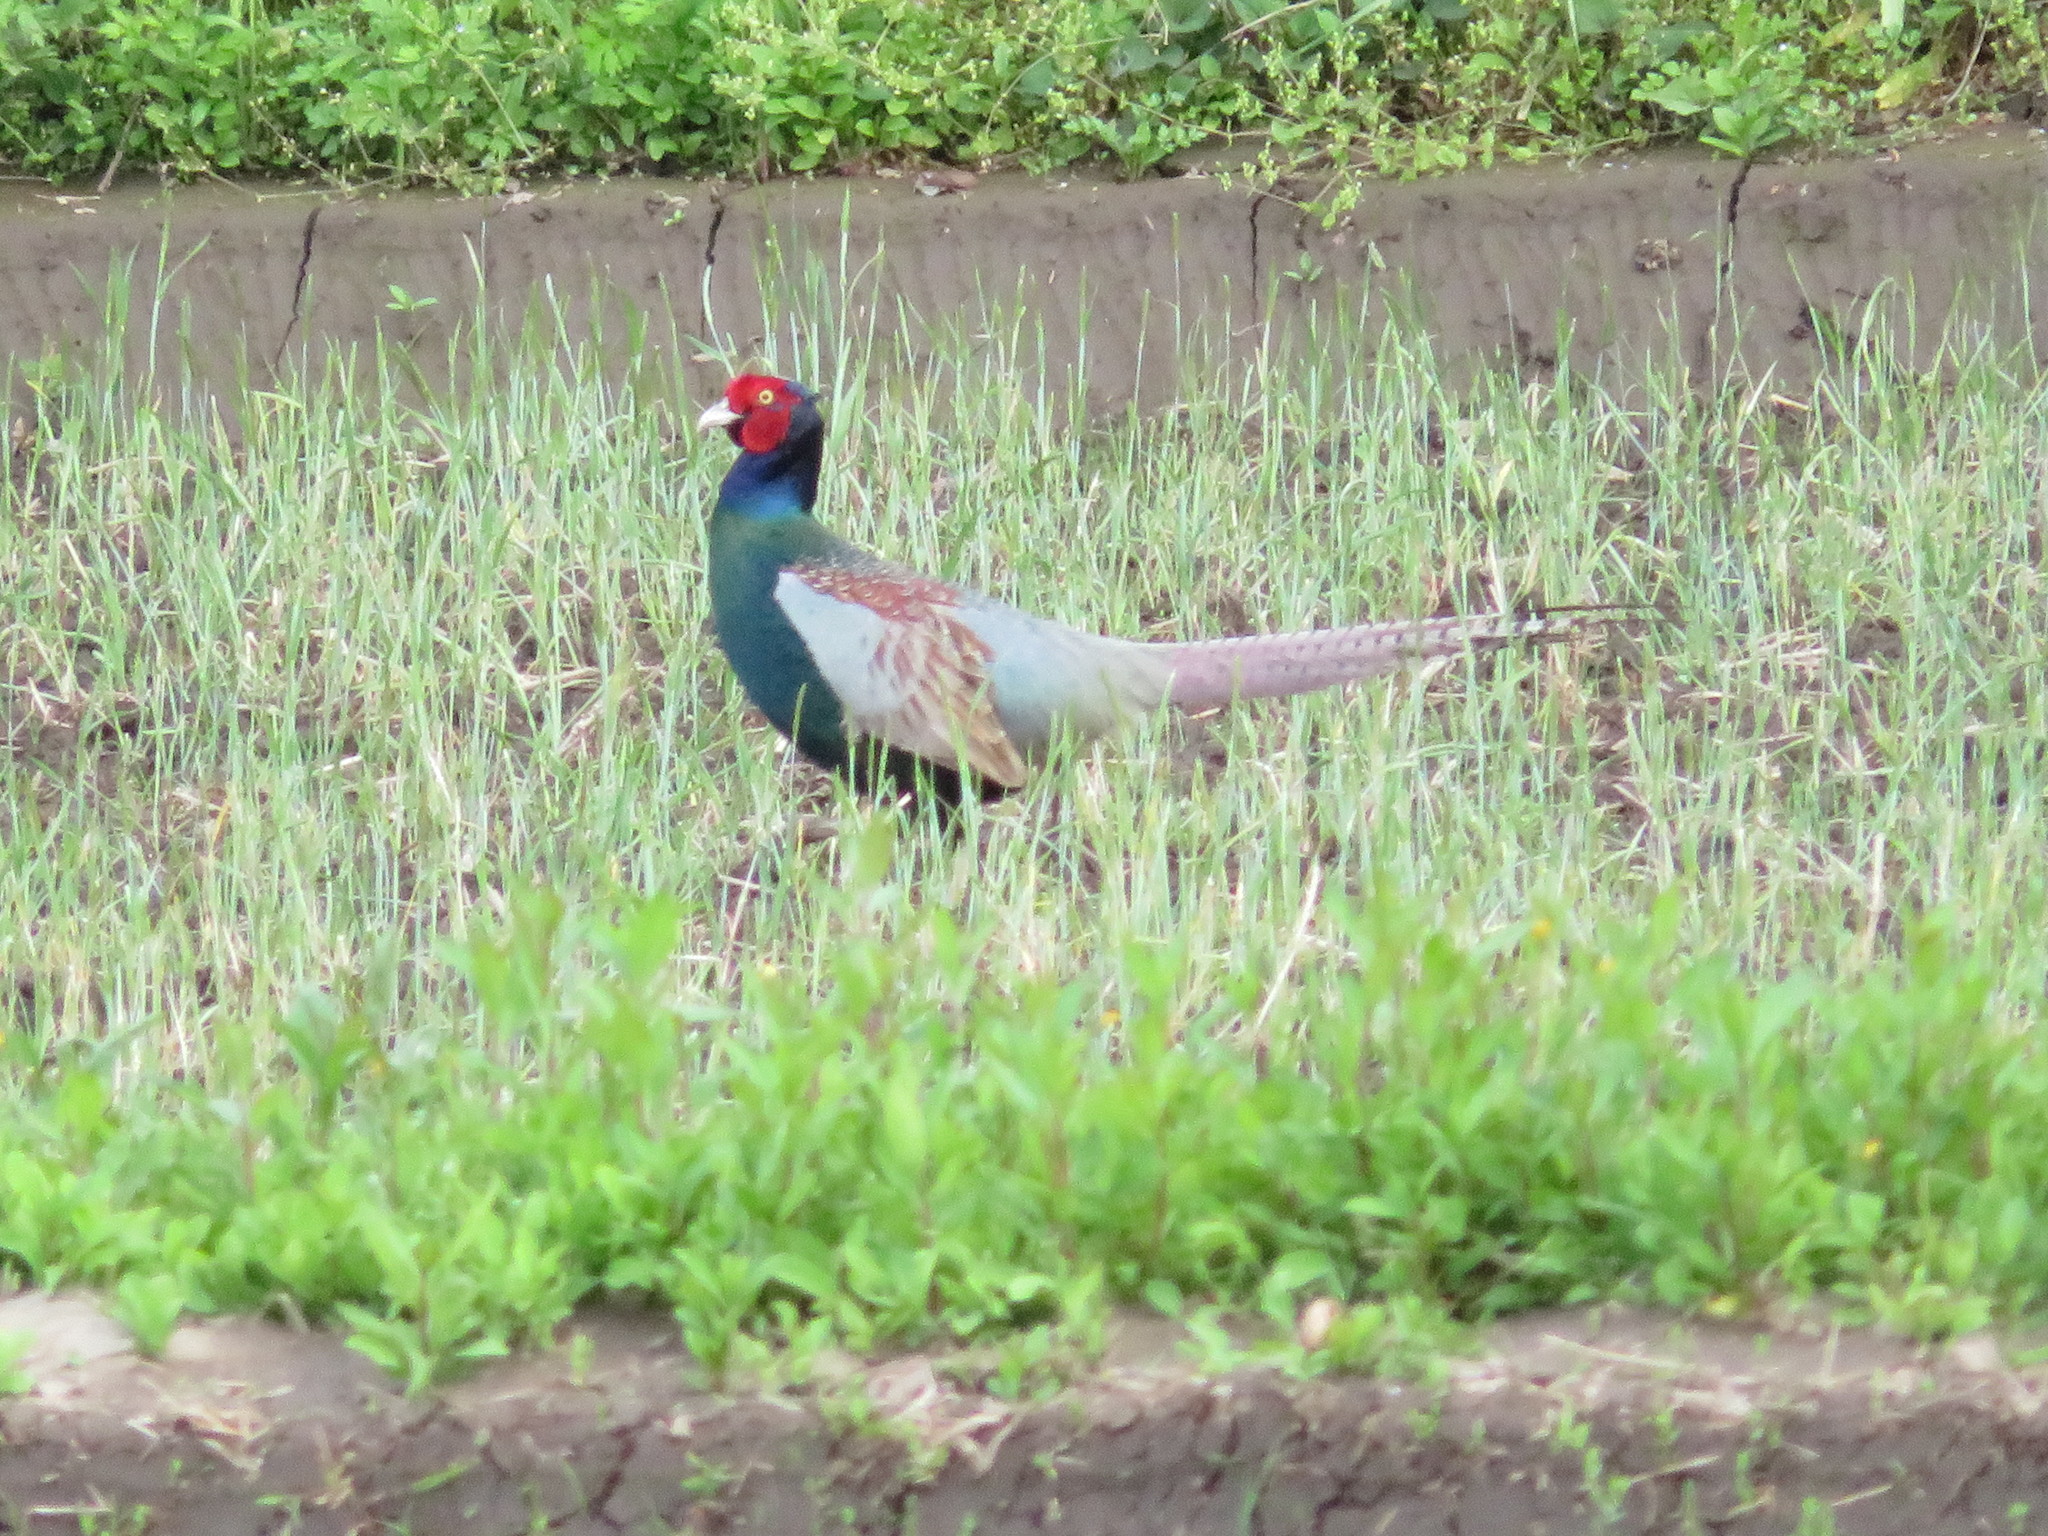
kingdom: Animalia
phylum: Chordata
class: Aves
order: Galliformes
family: Phasianidae
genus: Phasianus
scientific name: Phasianus versicolor
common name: Green pheasant
